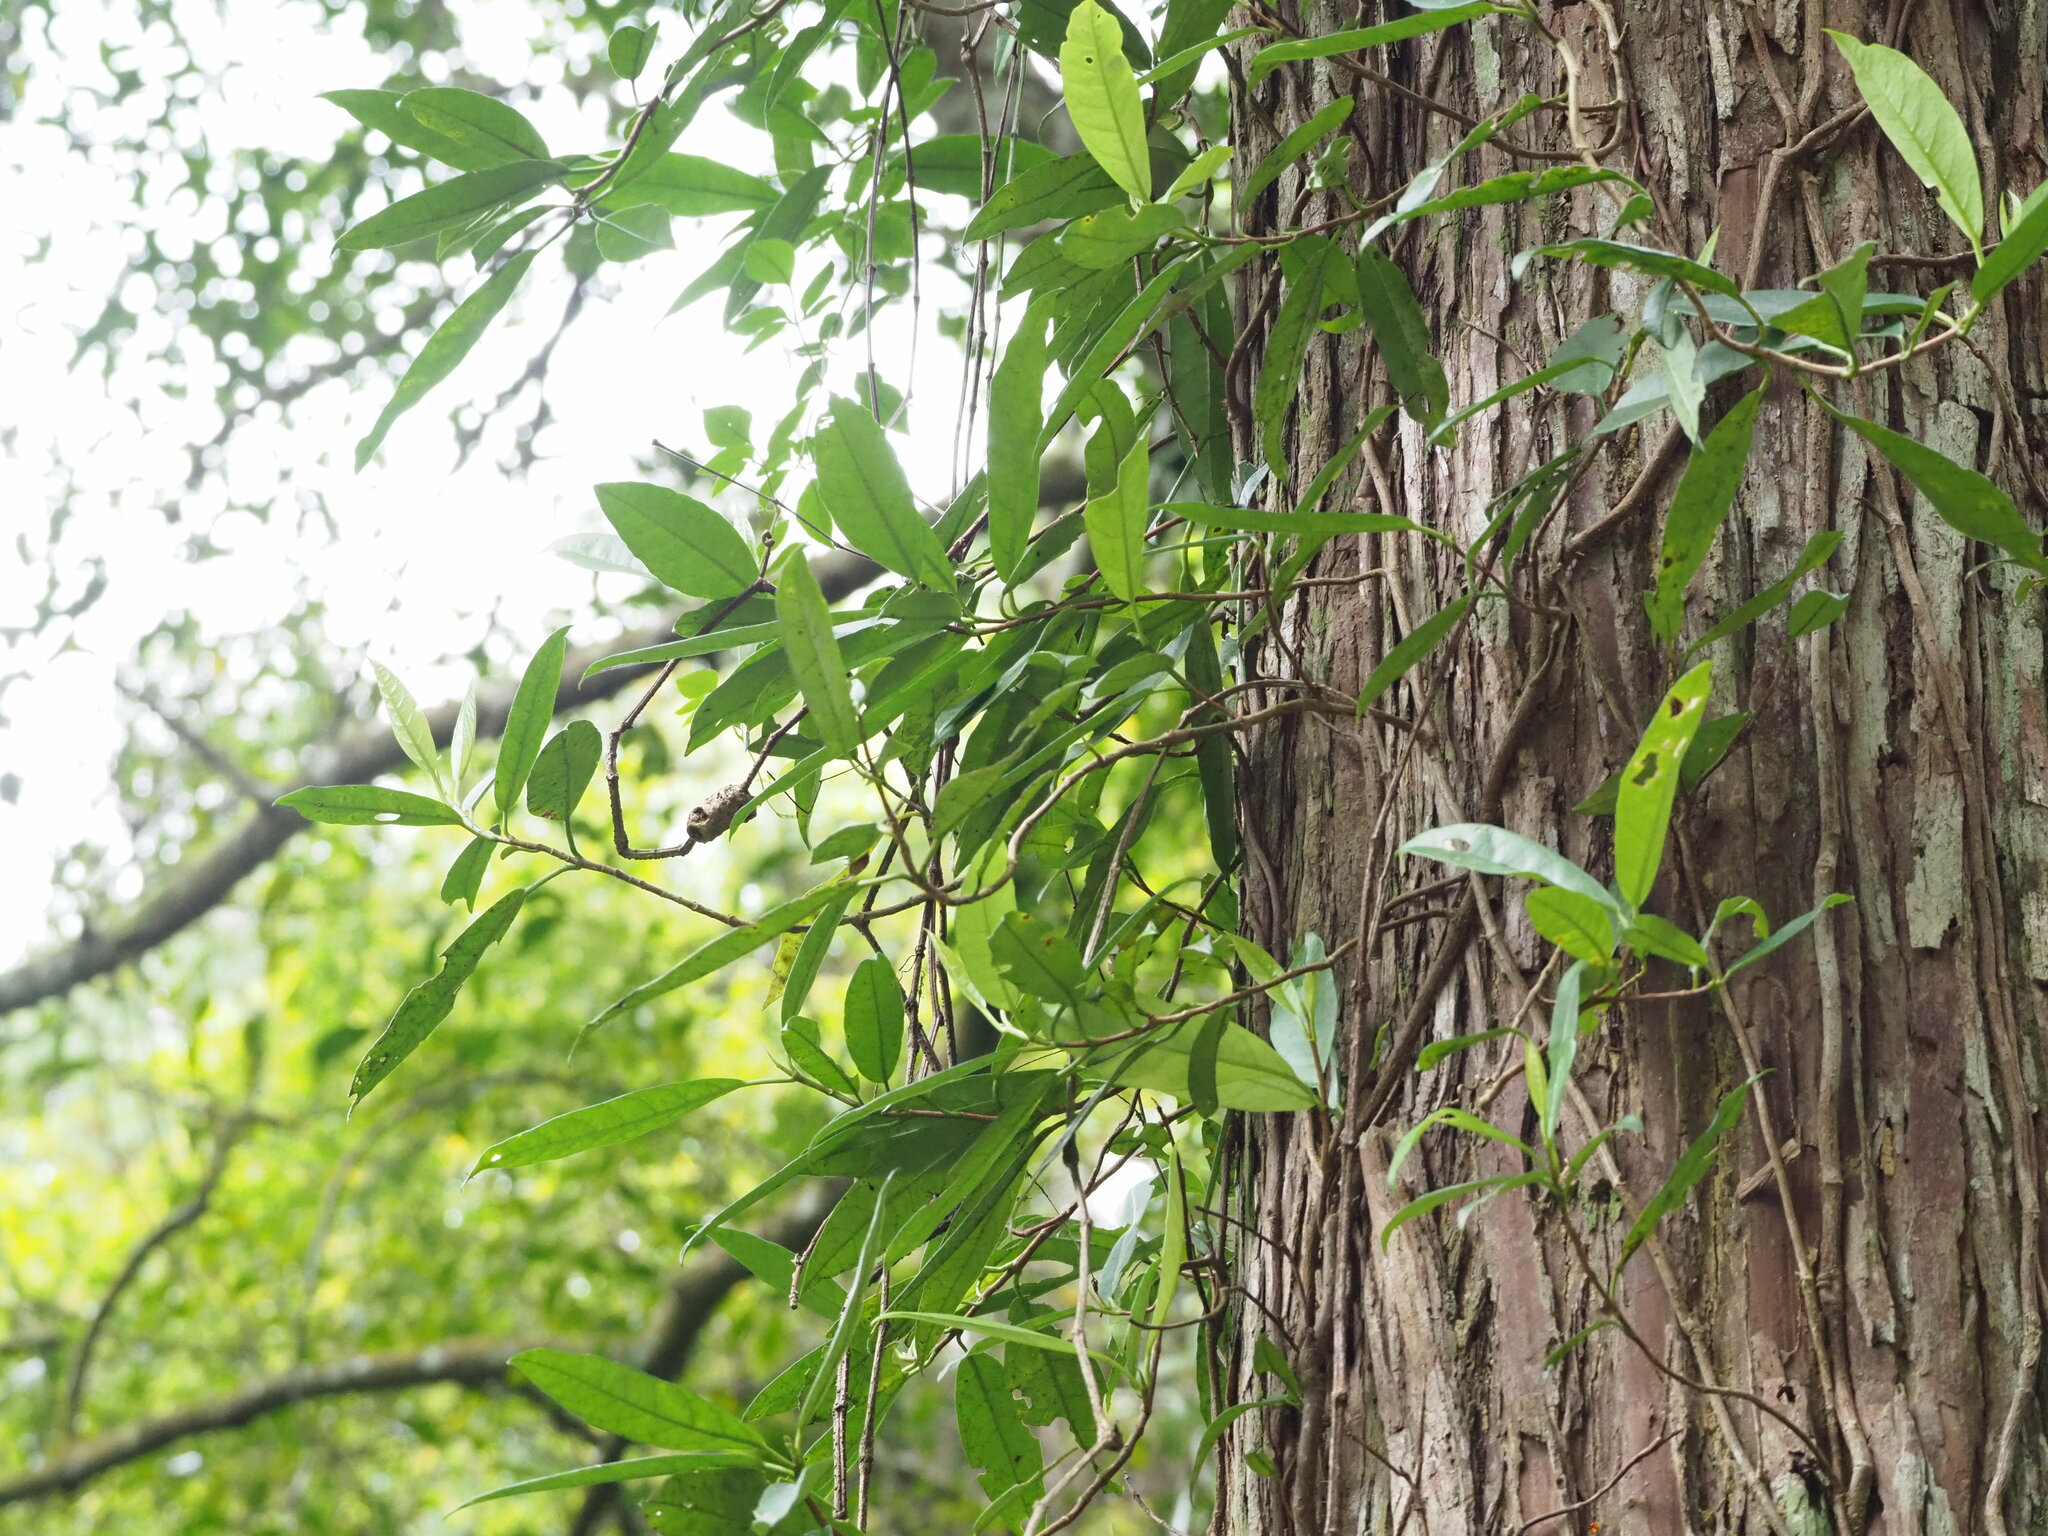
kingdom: Plantae
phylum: Tracheophyta
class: Magnoliopsida
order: Cornales
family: Hydrangeaceae
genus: Hydrangea
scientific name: Hydrangea viburnoides
